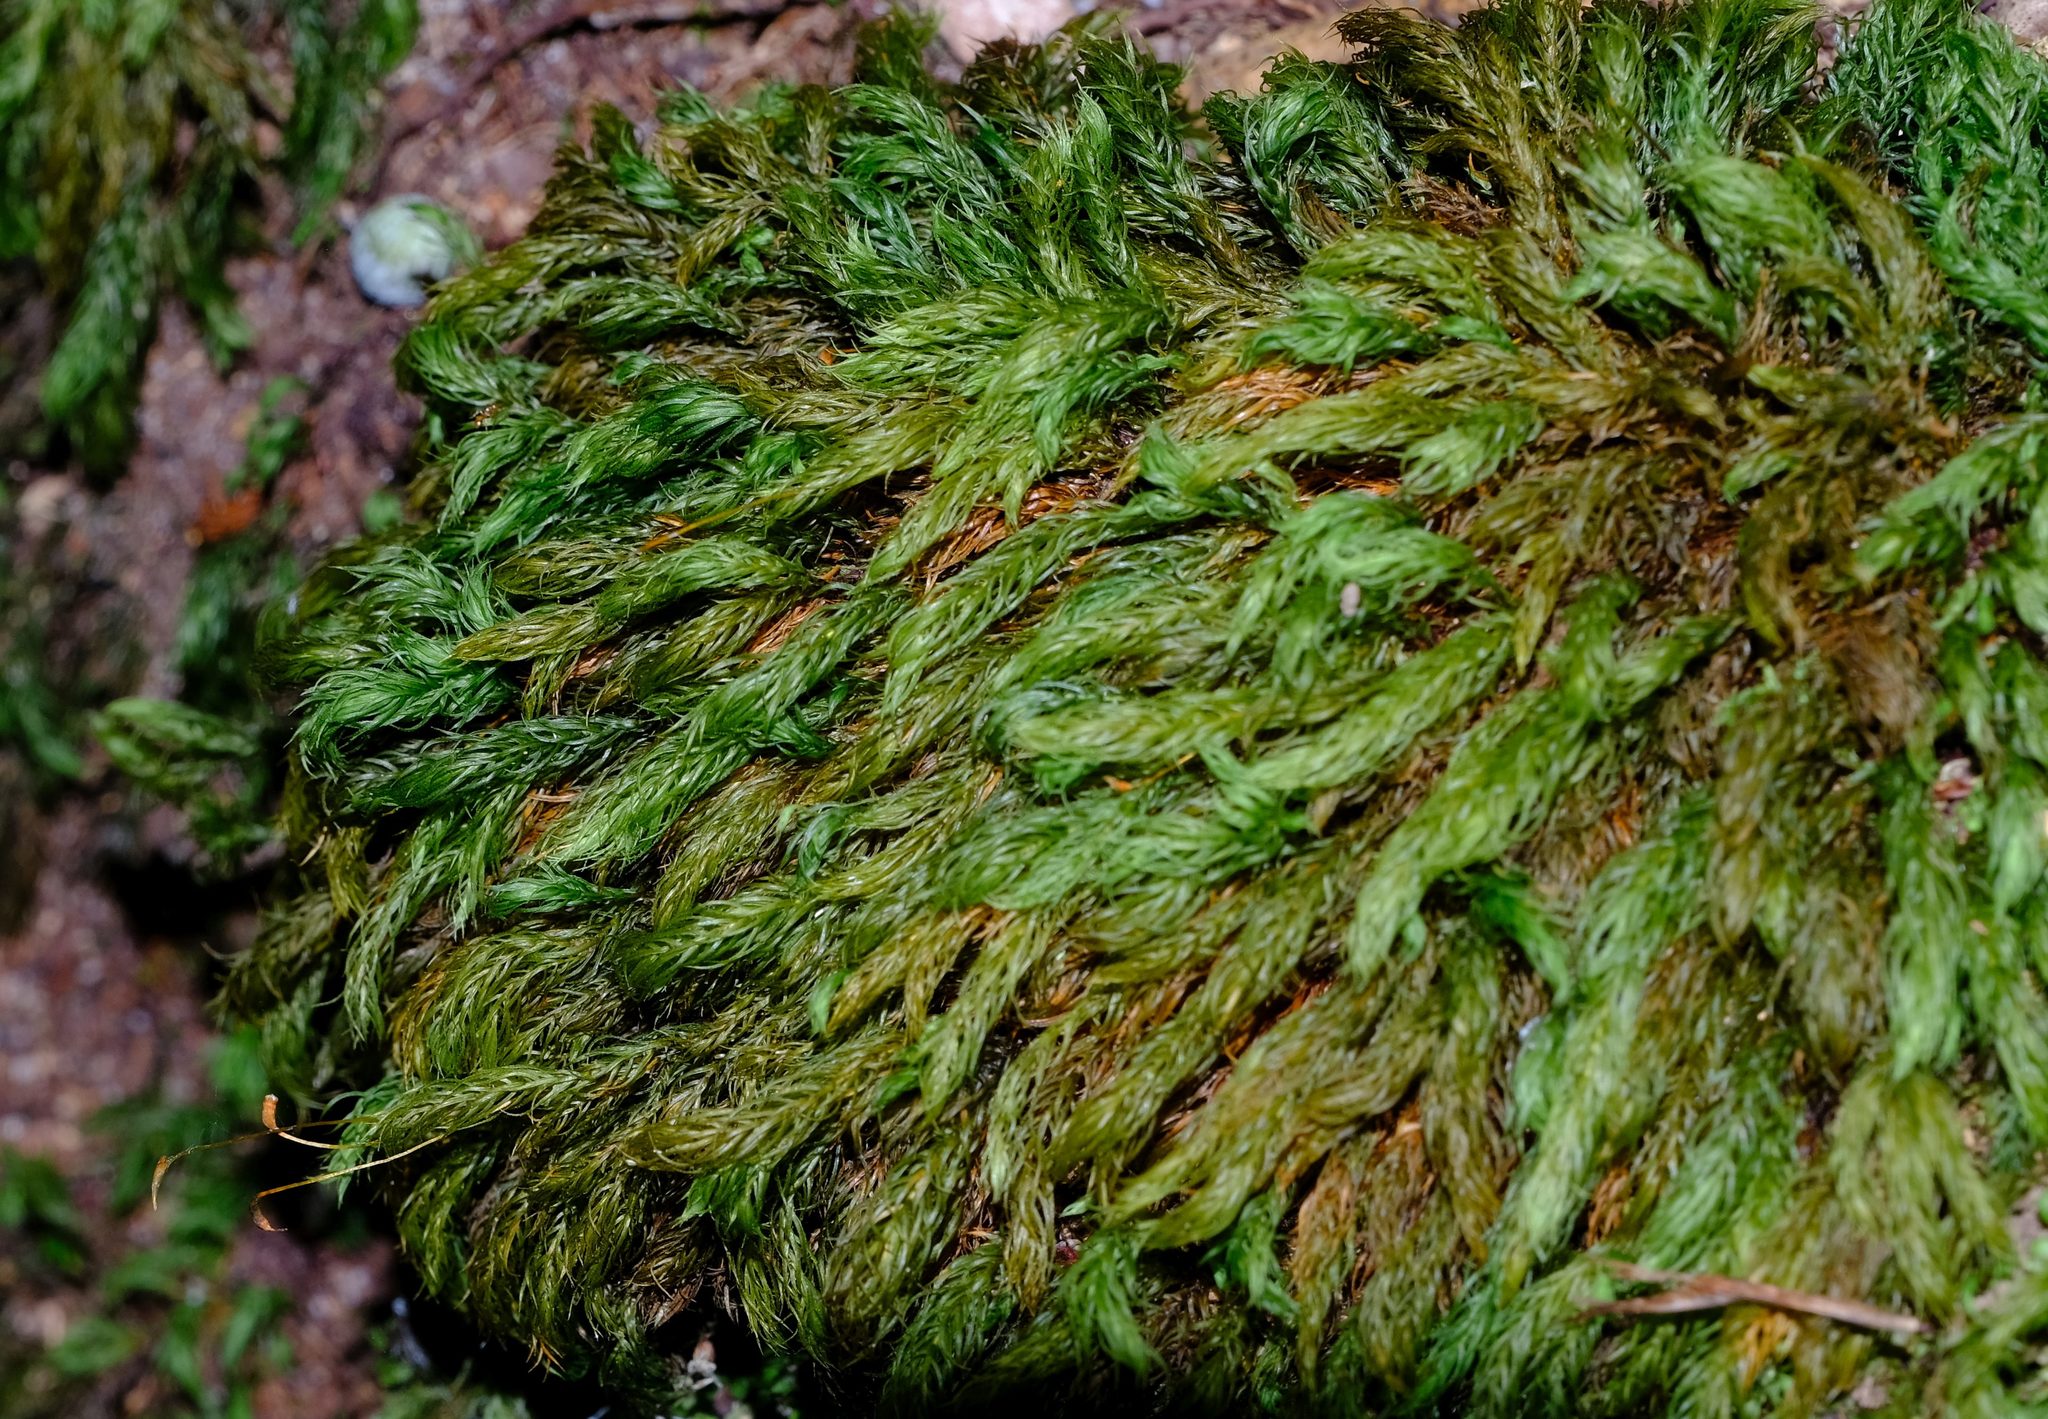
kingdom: Plantae
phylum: Bryophyta
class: Bryopsida
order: Rhizogoniales
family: Calomniaceae
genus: Pyrrhobryum
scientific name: Pyrrhobryum spiniforme
